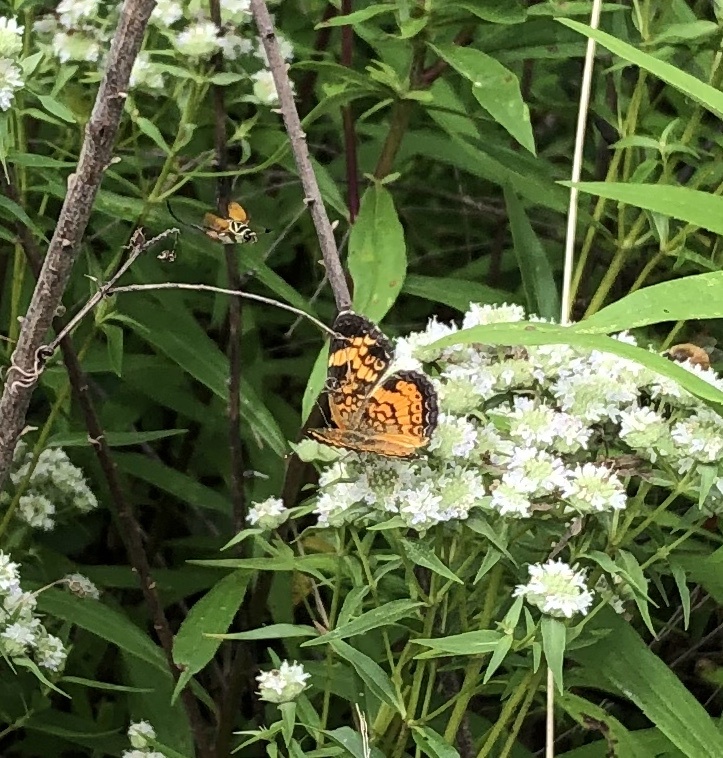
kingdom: Animalia
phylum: Arthropoda
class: Insecta
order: Lepidoptera
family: Nymphalidae
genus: Phyciodes
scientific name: Phyciodes tharos
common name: Pearl crescent
